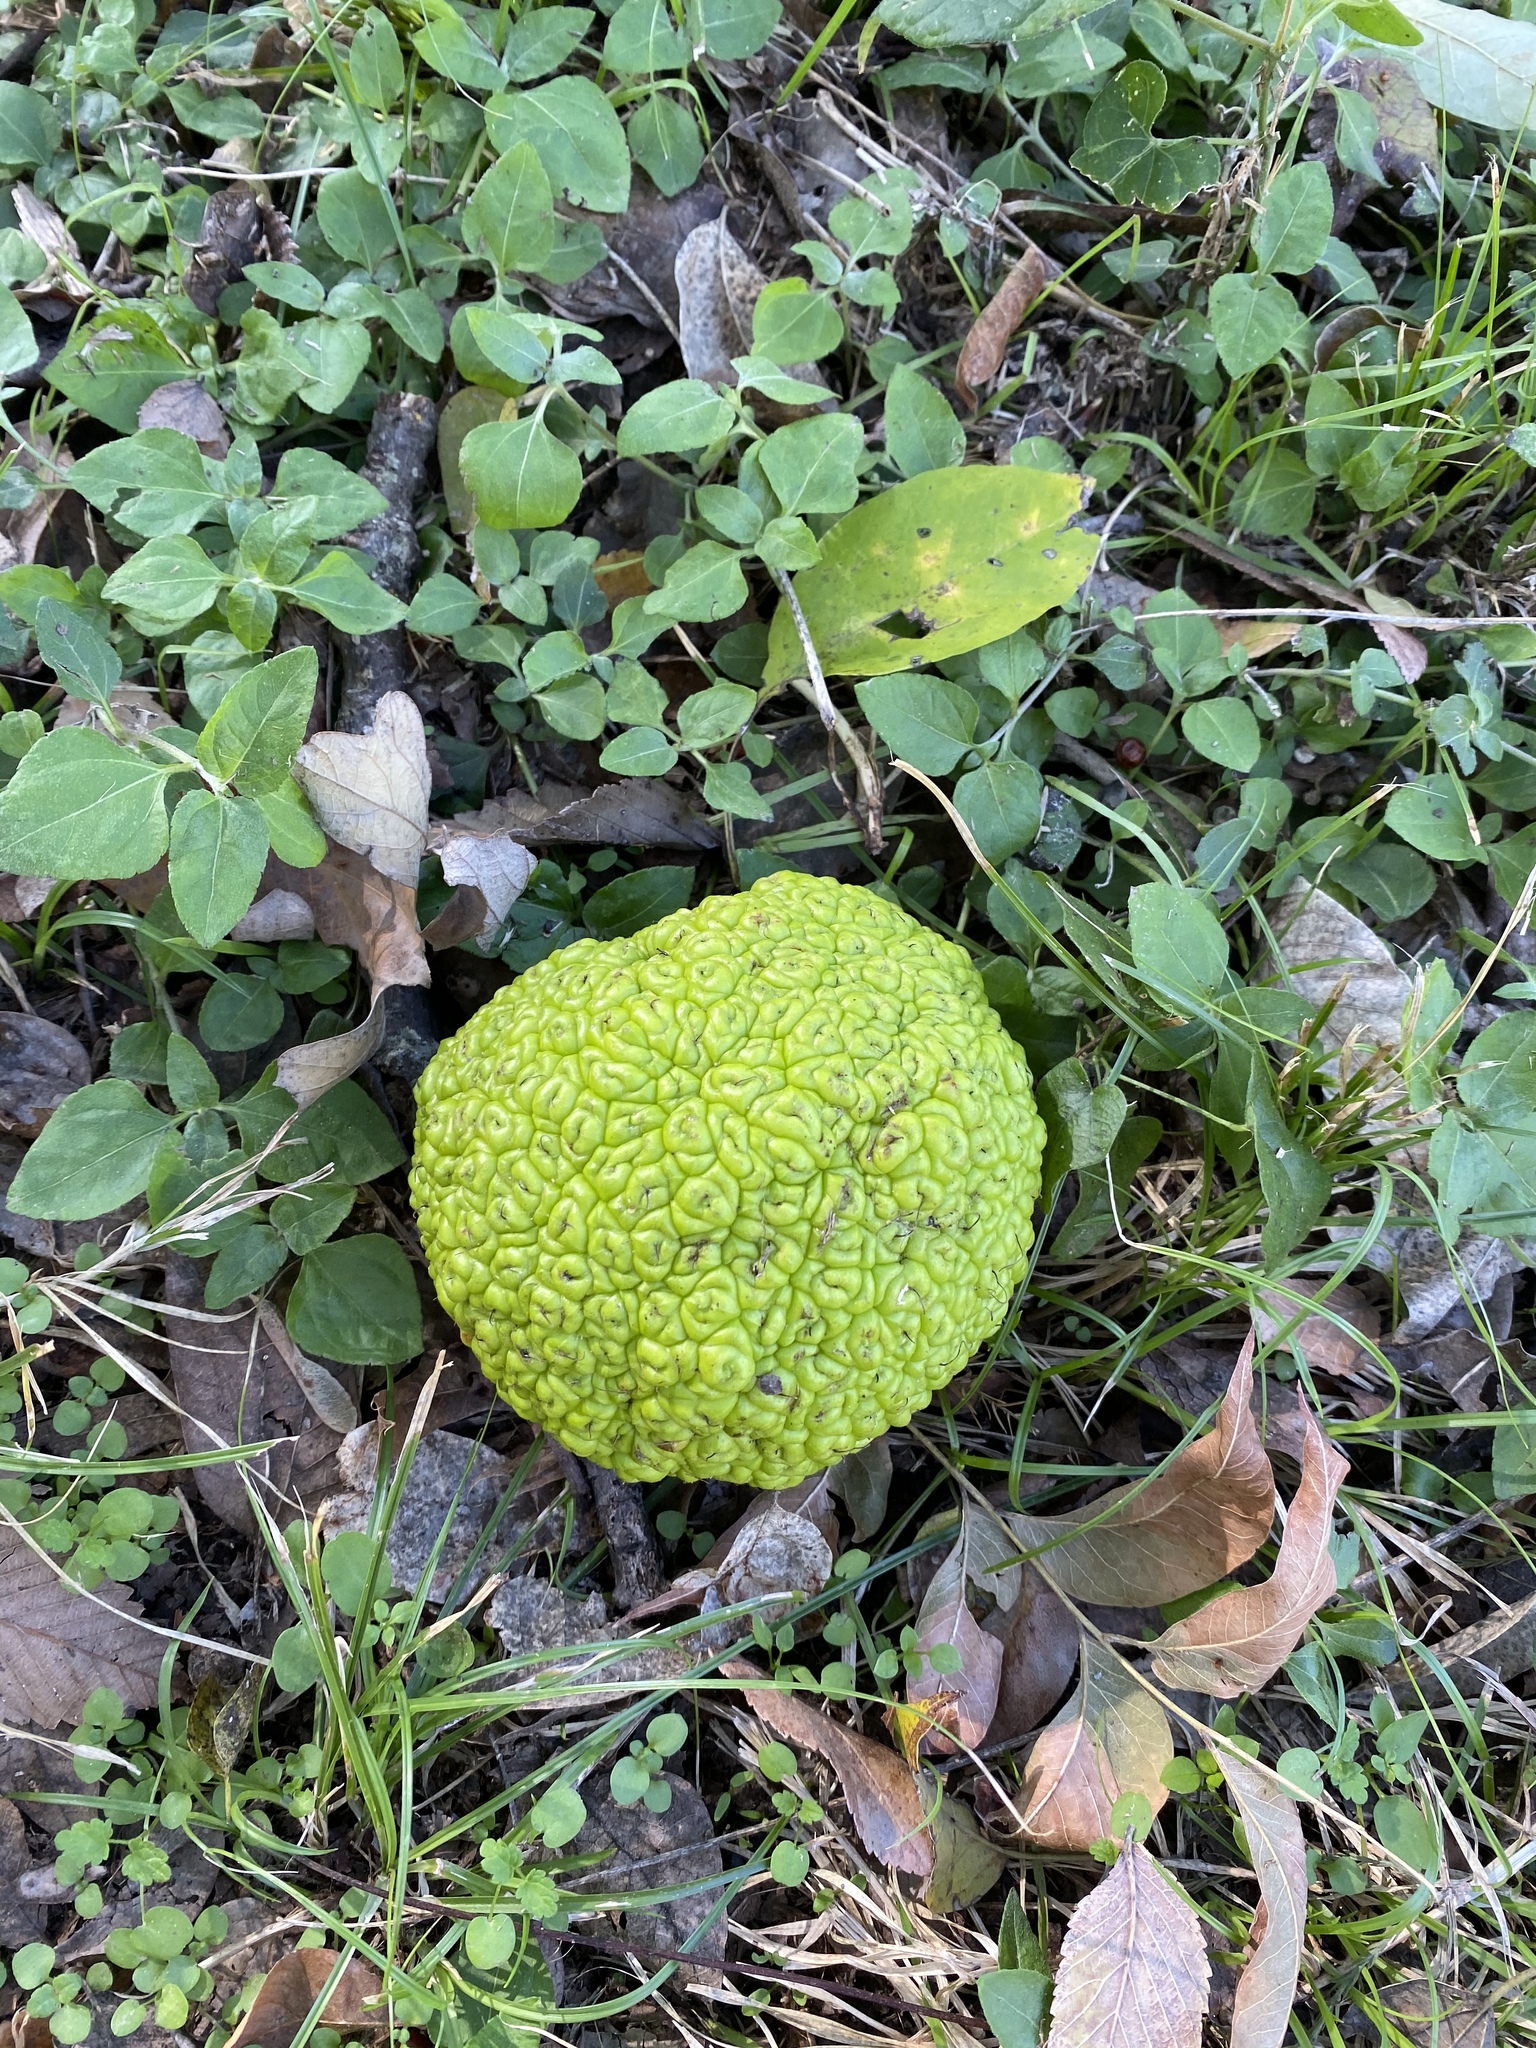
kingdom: Plantae
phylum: Tracheophyta
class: Magnoliopsida
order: Rosales
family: Moraceae
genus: Maclura
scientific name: Maclura pomifera
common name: Osage-orange
